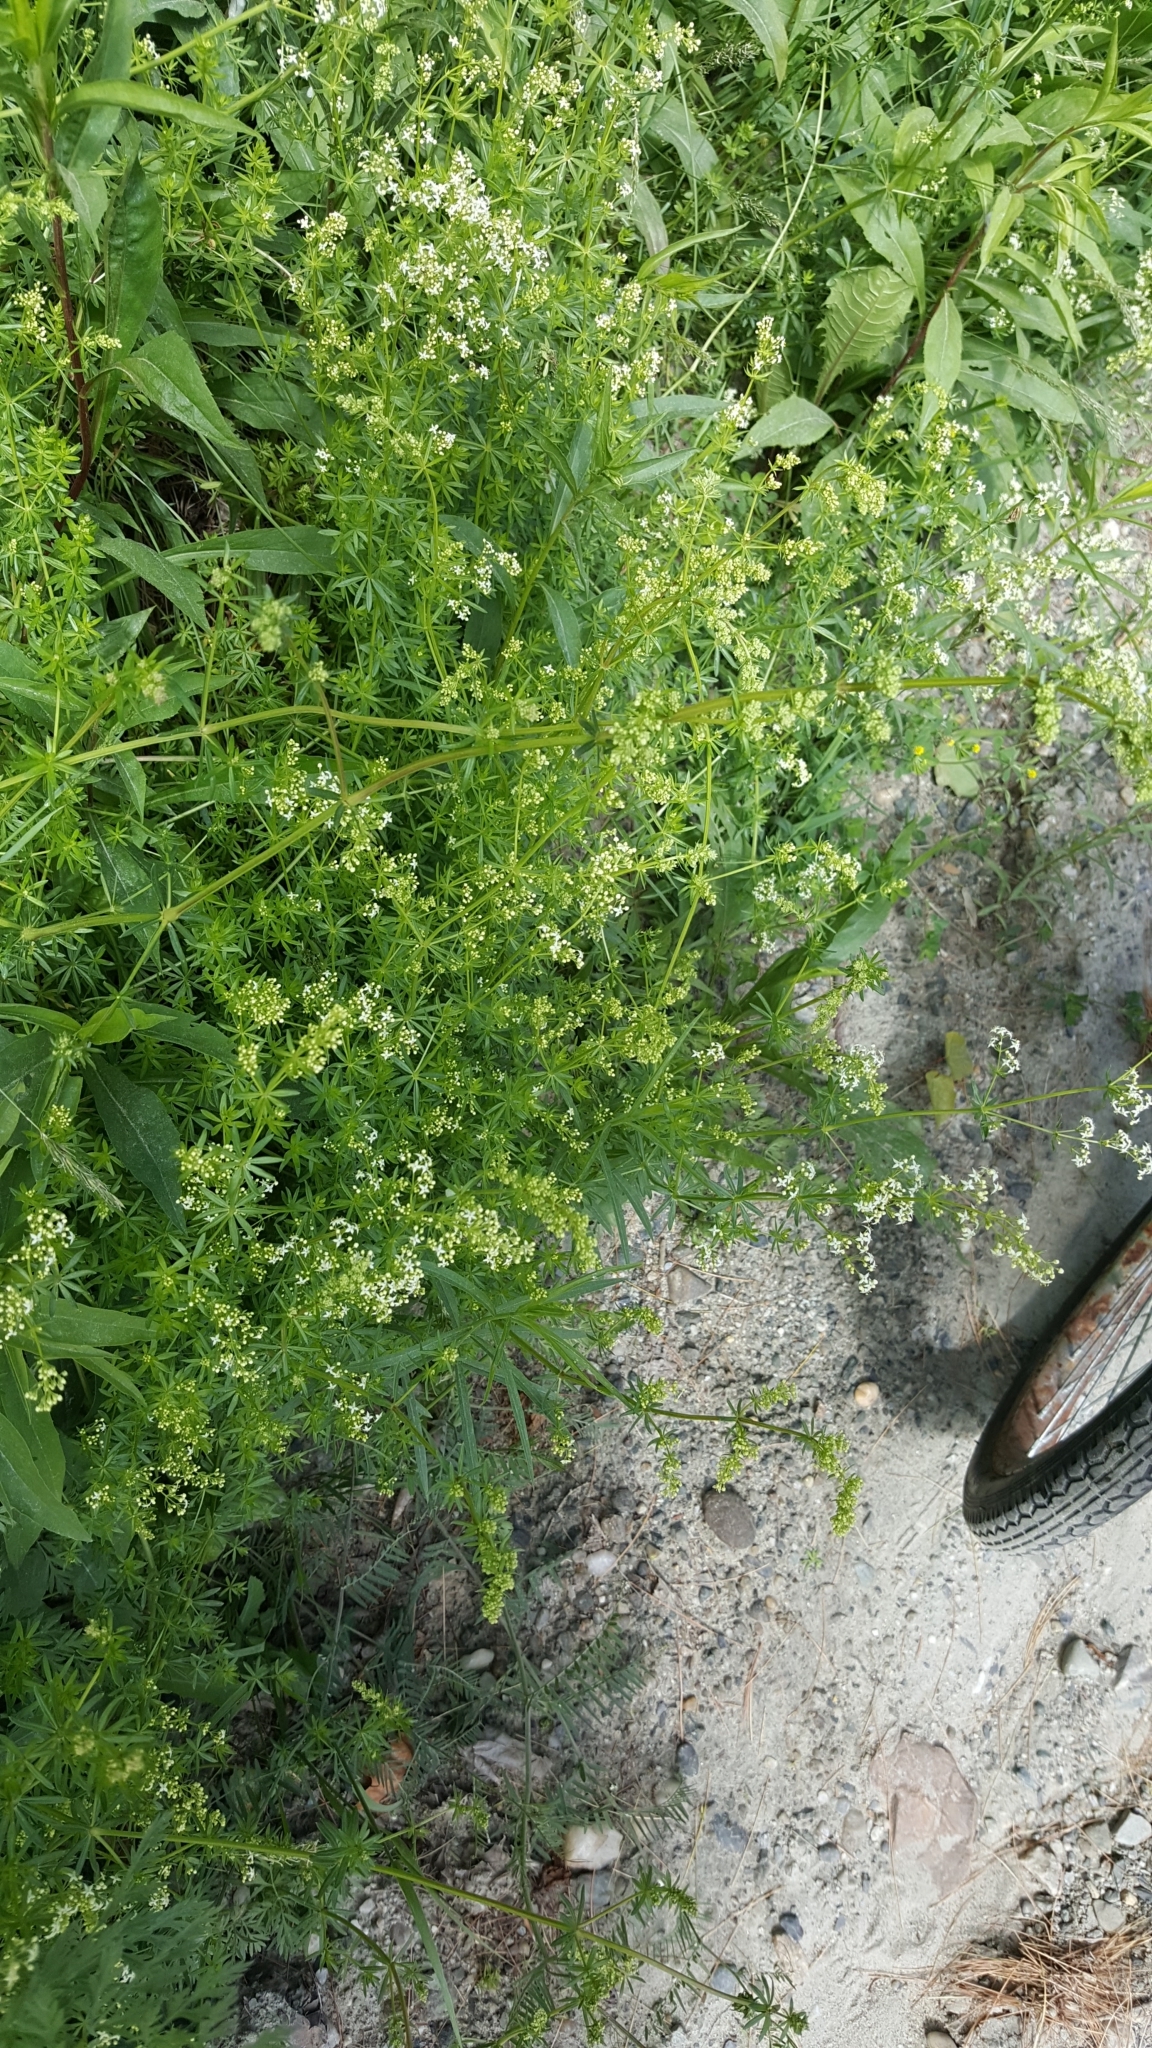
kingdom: Plantae
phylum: Tracheophyta
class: Magnoliopsida
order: Gentianales
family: Rubiaceae
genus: Galium
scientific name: Galium mollugo
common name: Hedge bedstraw
